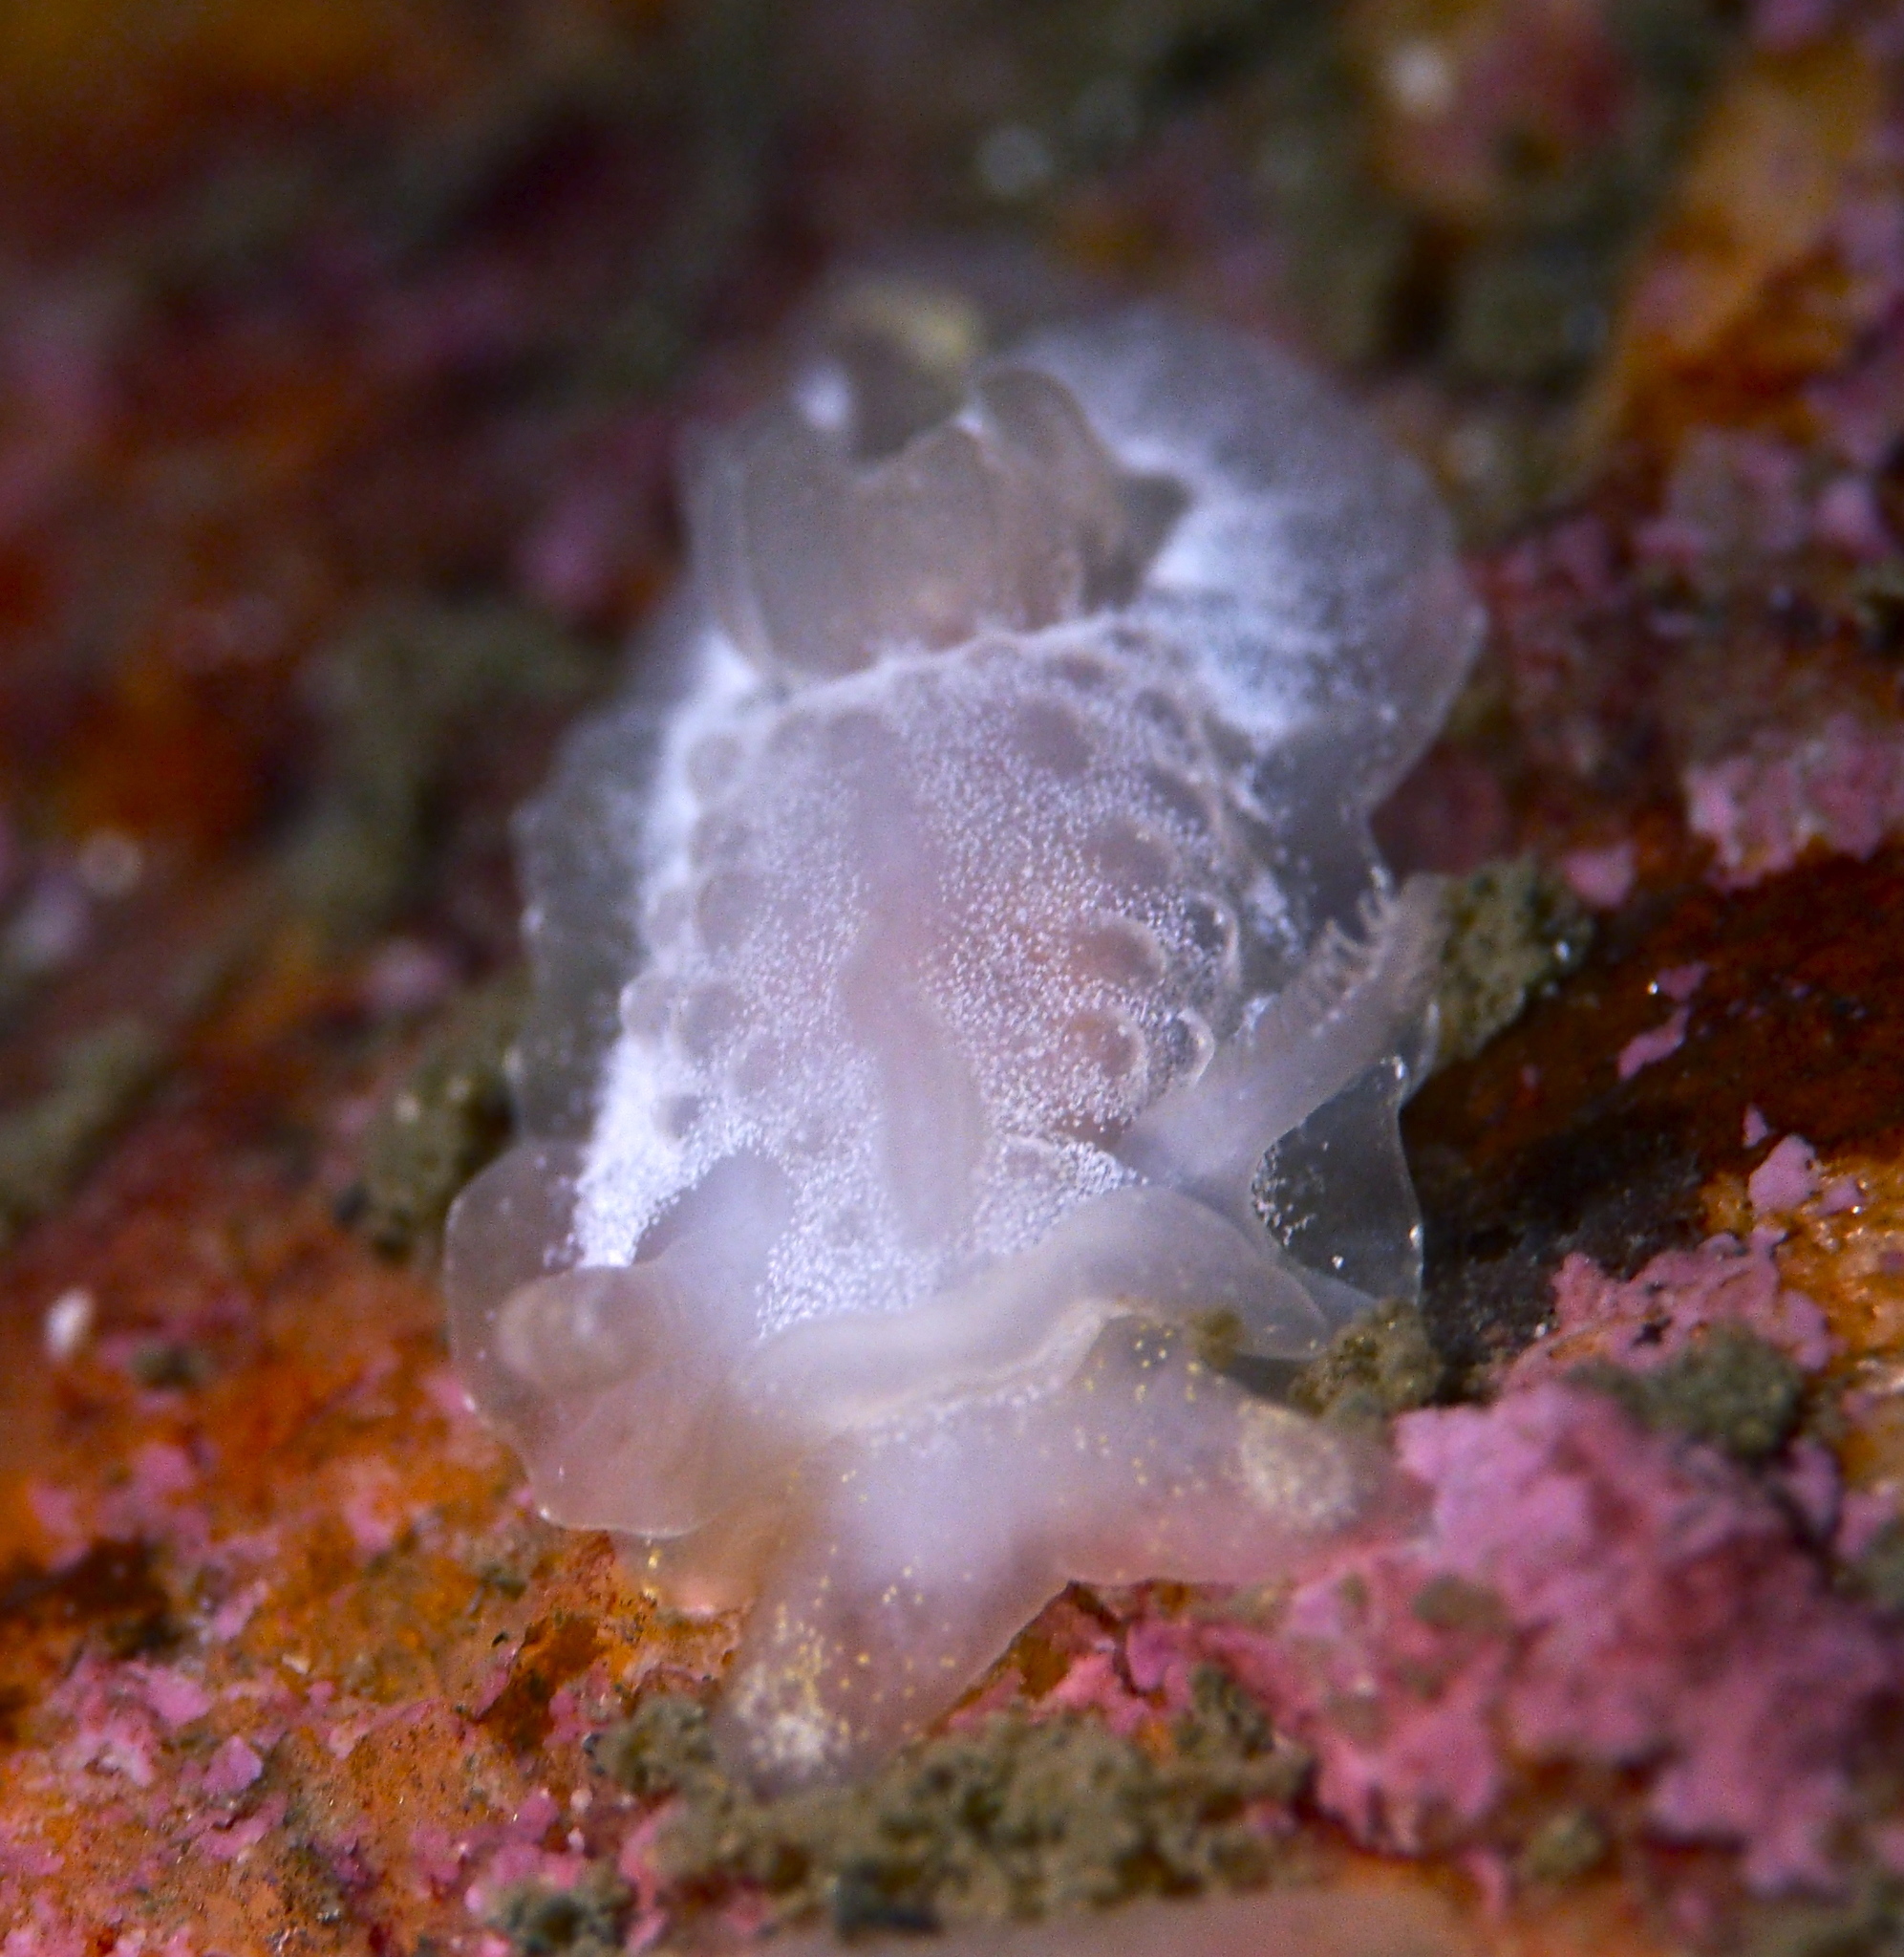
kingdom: Animalia
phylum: Mollusca
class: Gastropoda
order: Nudibranchia
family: Goniodorididae
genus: Okenia
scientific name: Okenia
